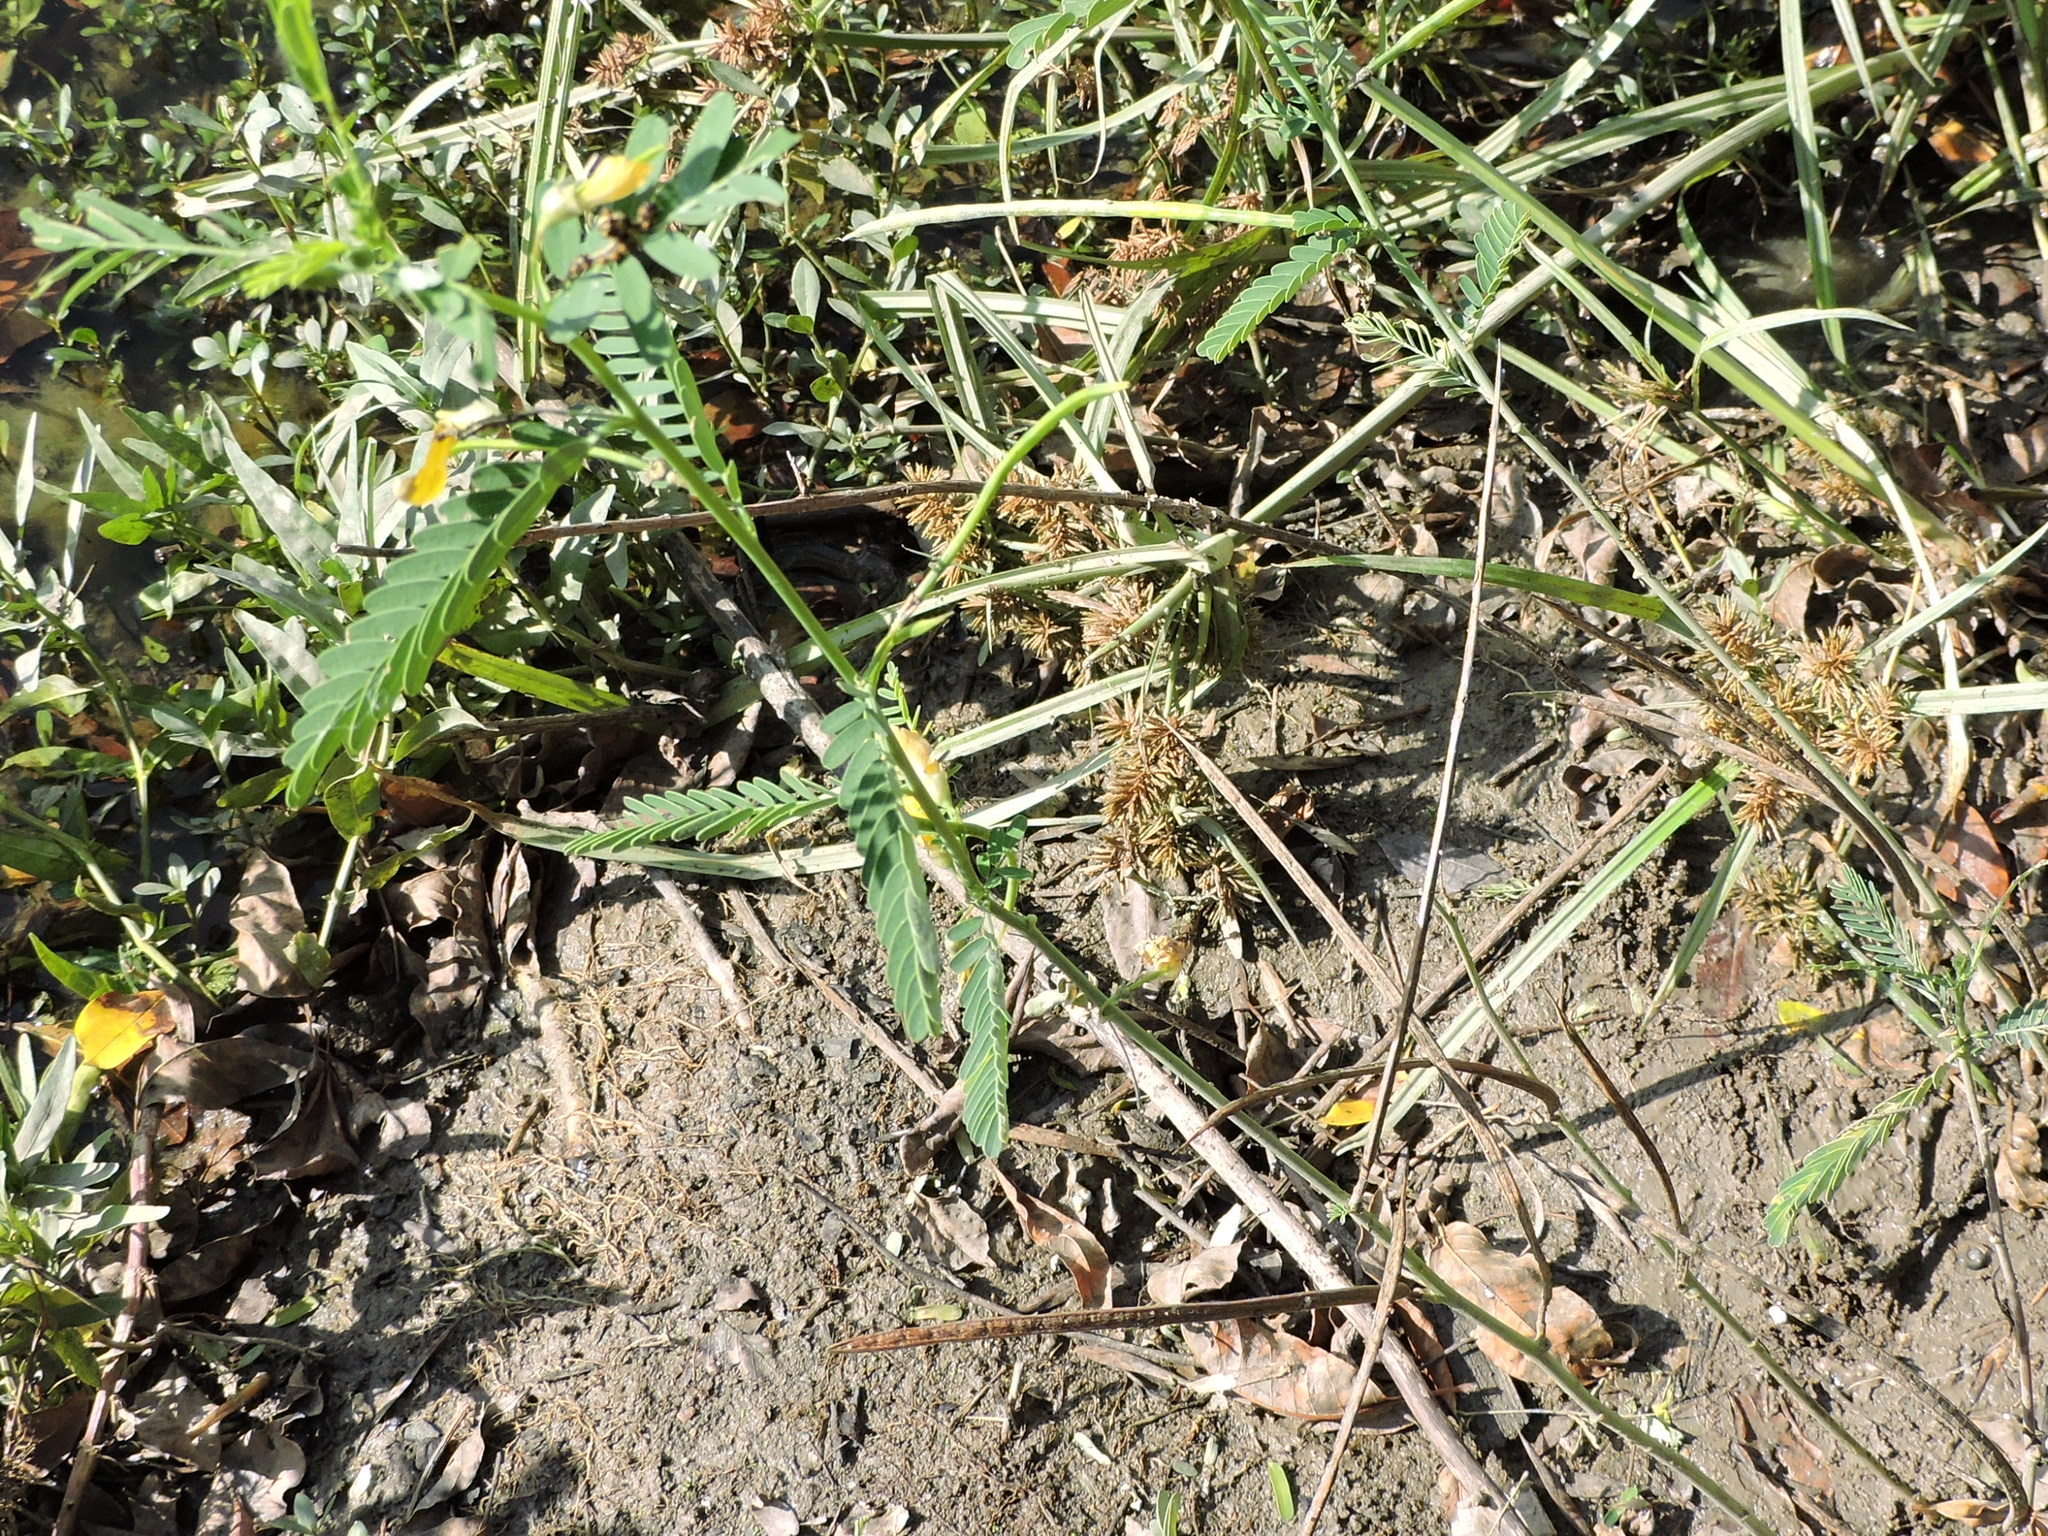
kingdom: Plantae
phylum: Tracheophyta
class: Magnoliopsida
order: Fabales
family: Fabaceae
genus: Sesbania
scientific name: Sesbania herbacea
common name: Bigpod sesbania
